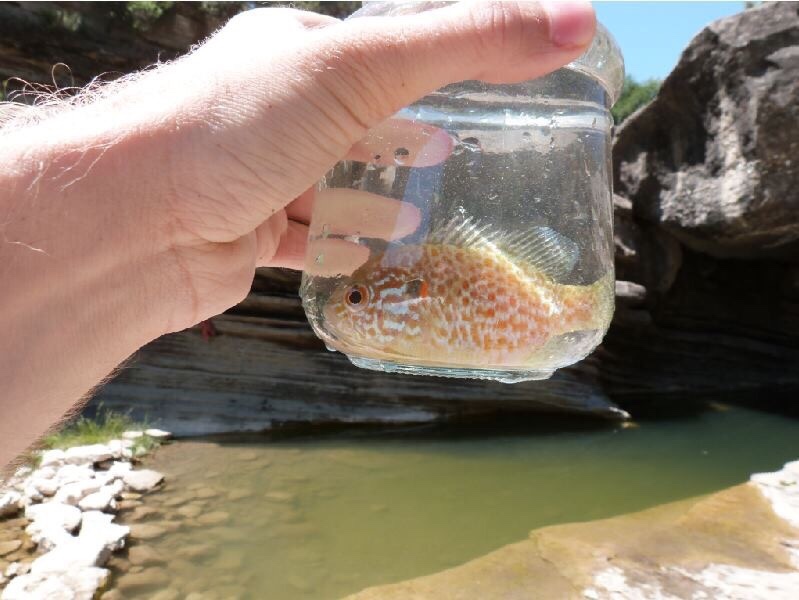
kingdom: Animalia
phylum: Chordata
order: Perciformes
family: Centrarchidae
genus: Lepomis
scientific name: Lepomis gibbosus
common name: Pumpkinseed
